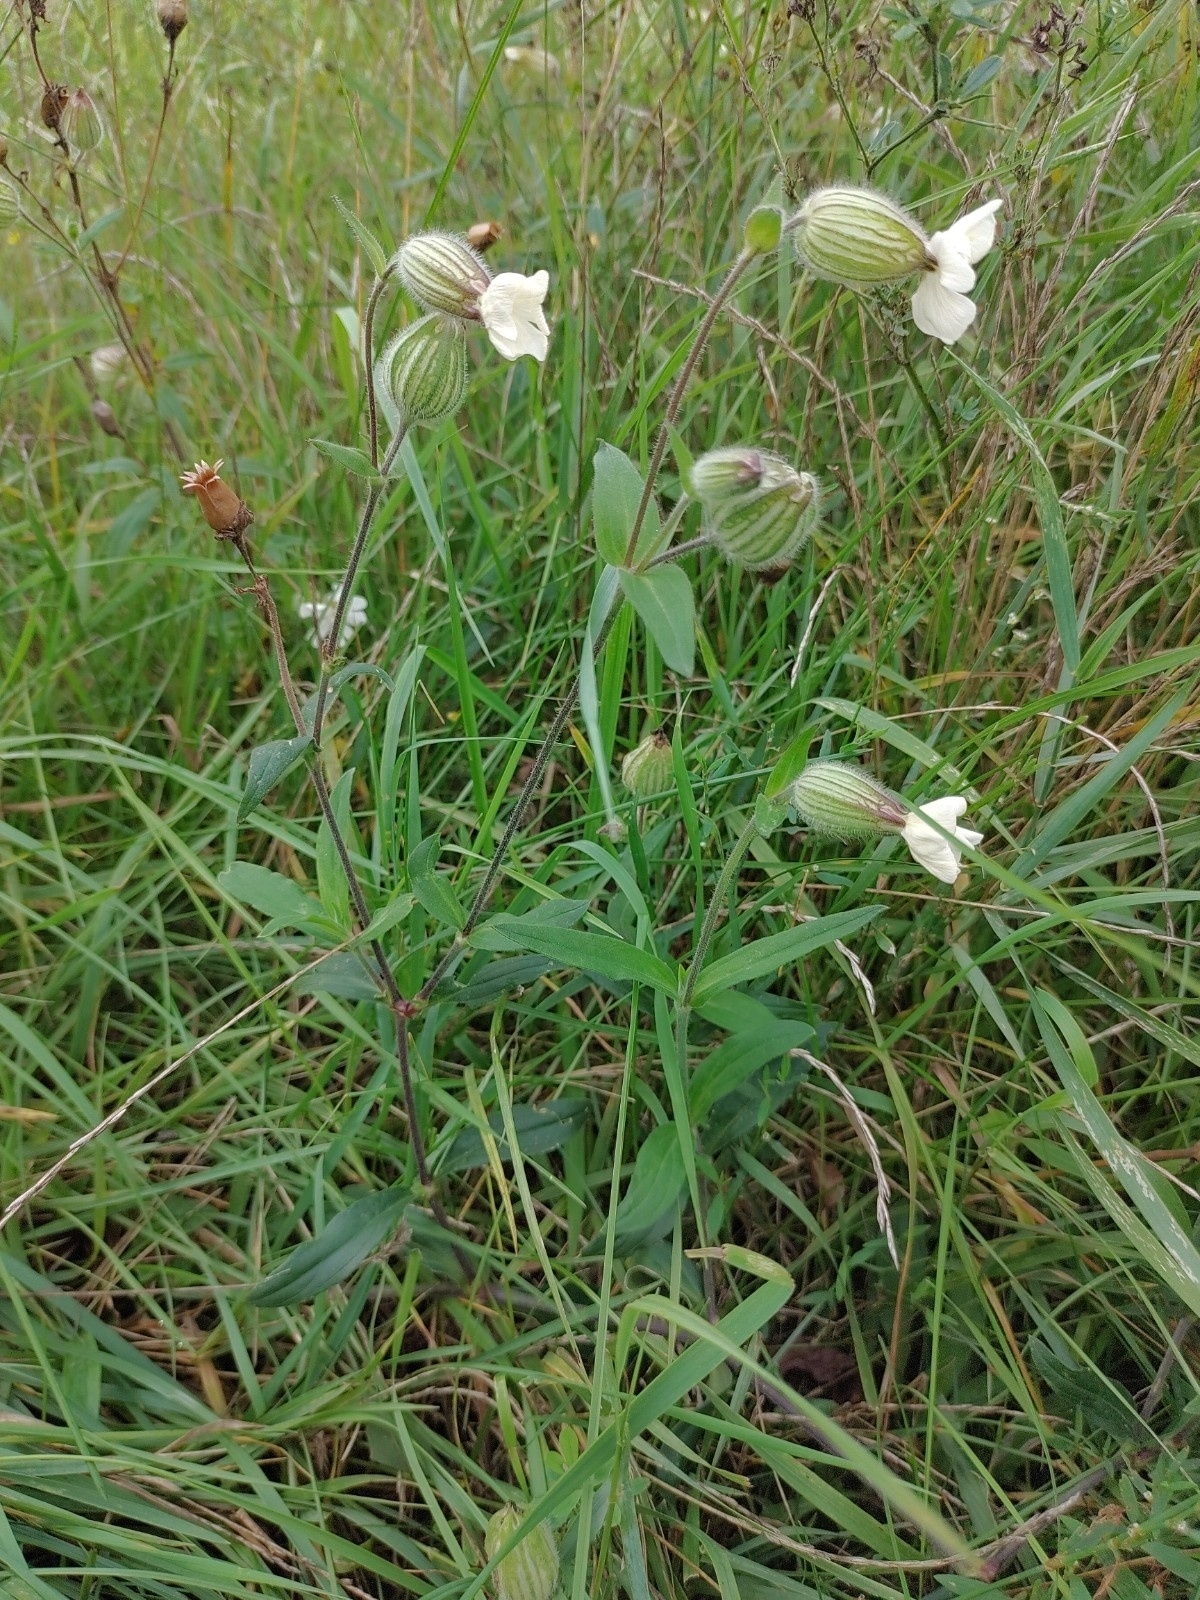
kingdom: Plantae
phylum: Tracheophyta
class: Magnoliopsida
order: Caryophyllales
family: Caryophyllaceae
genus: Silene
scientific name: Silene latifolia
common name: White campion
